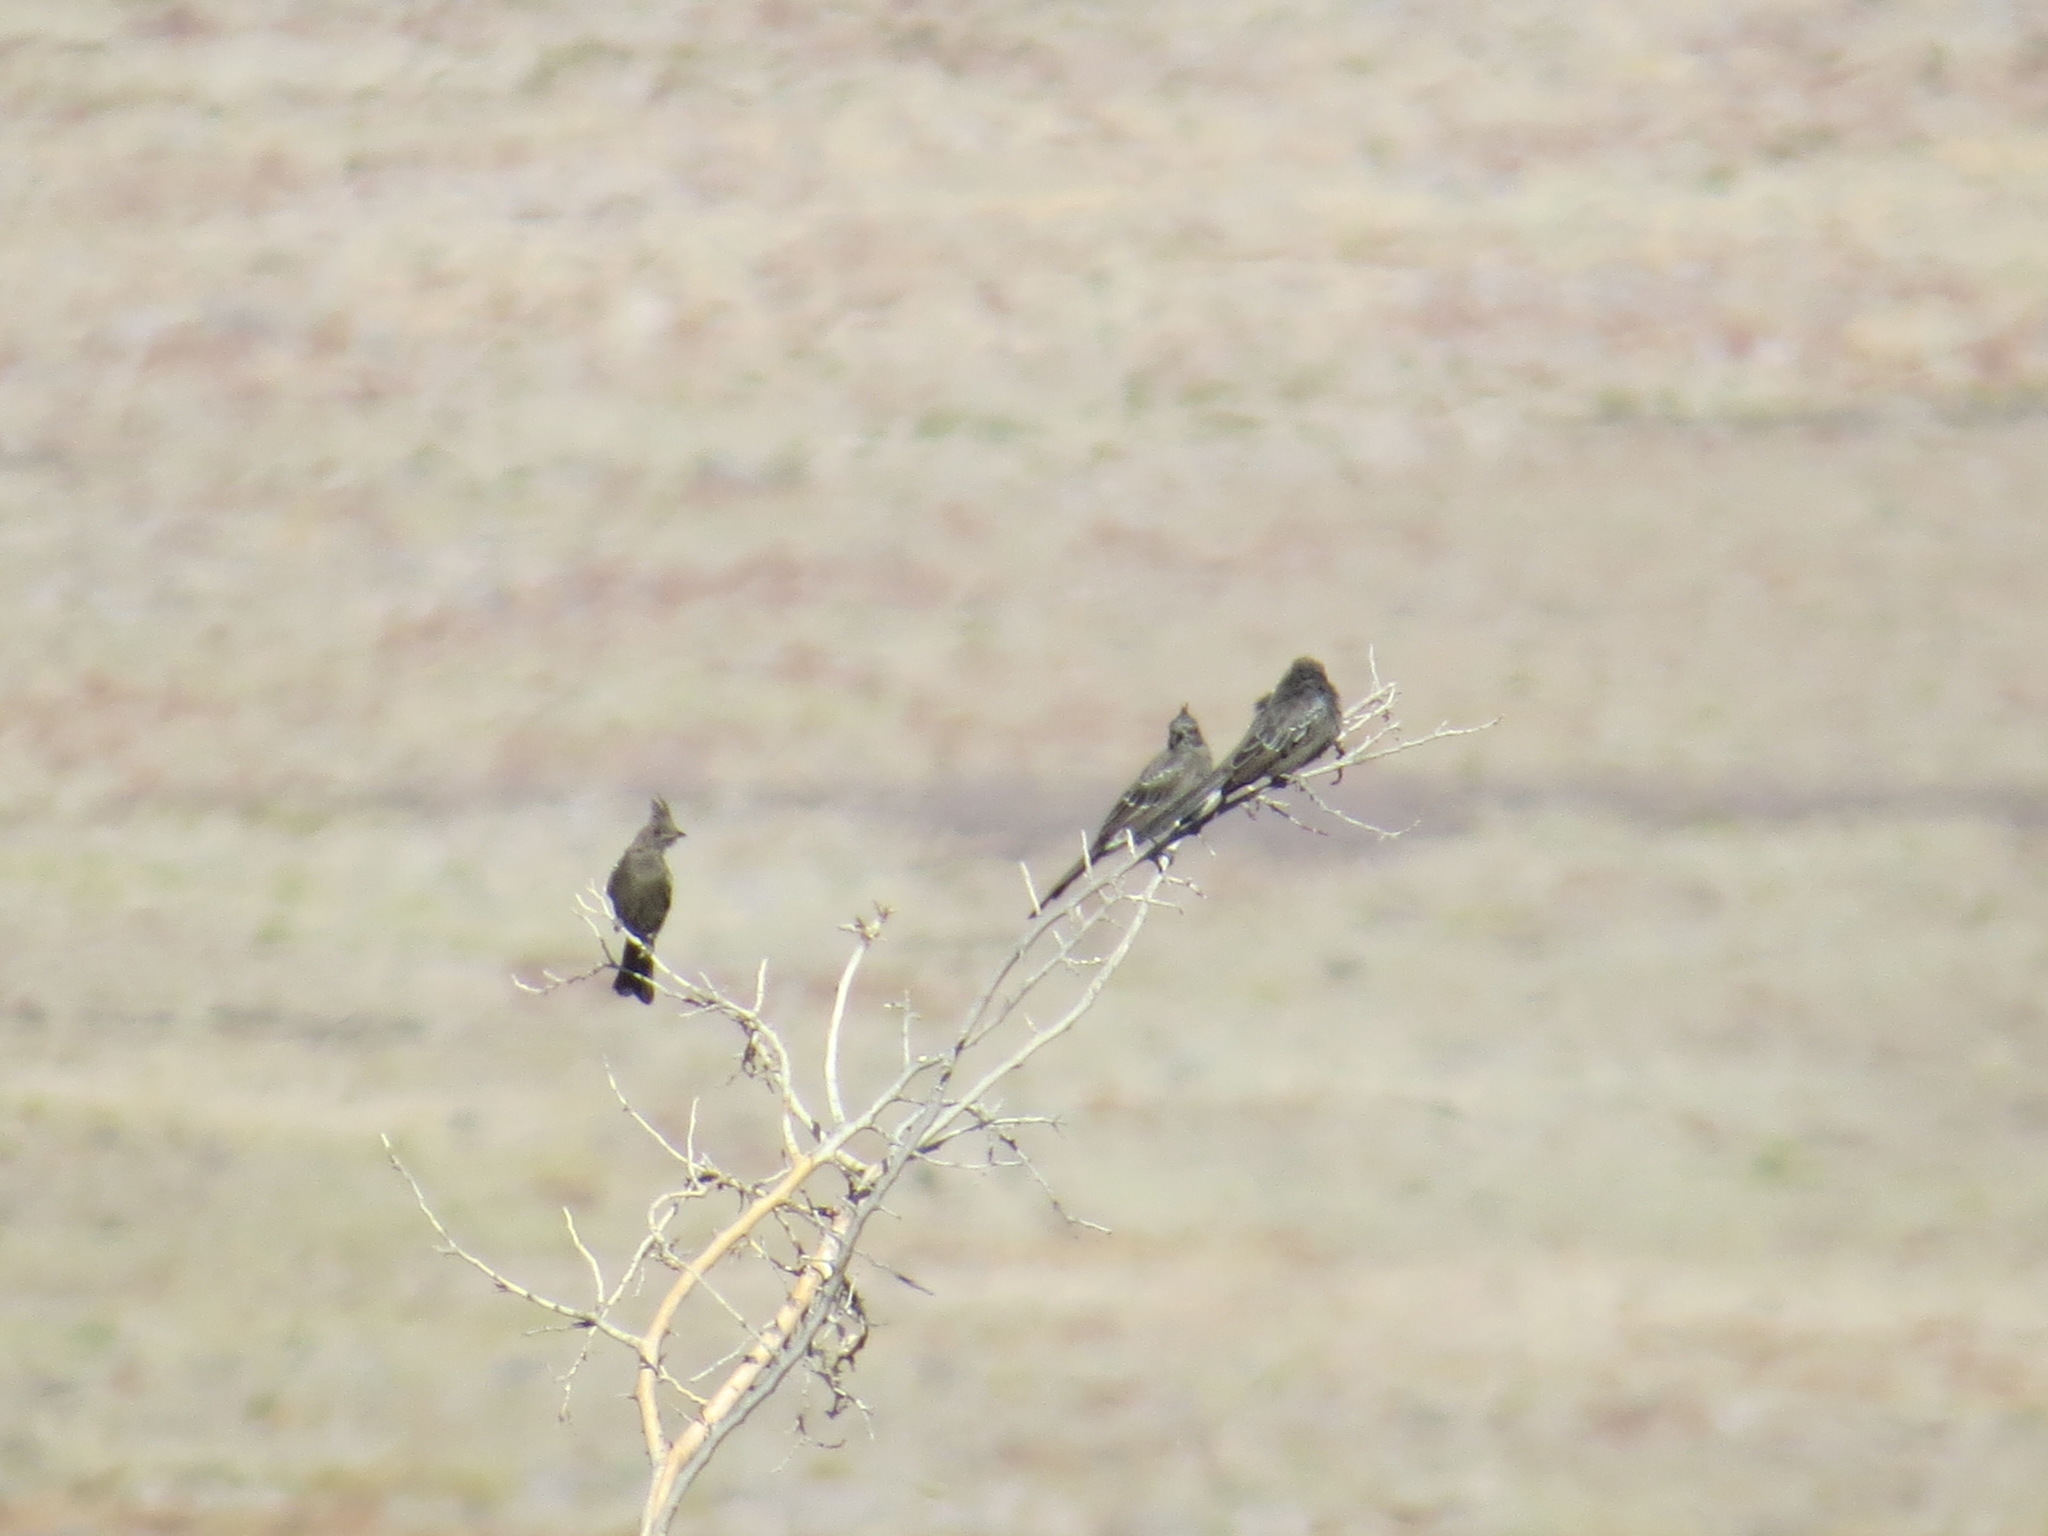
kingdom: Animalia
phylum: Chordata
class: Aves
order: Passeriformes
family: Ptilogonatidae
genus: Phainopepla
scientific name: Phainopepla nitens
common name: Phainopepla
